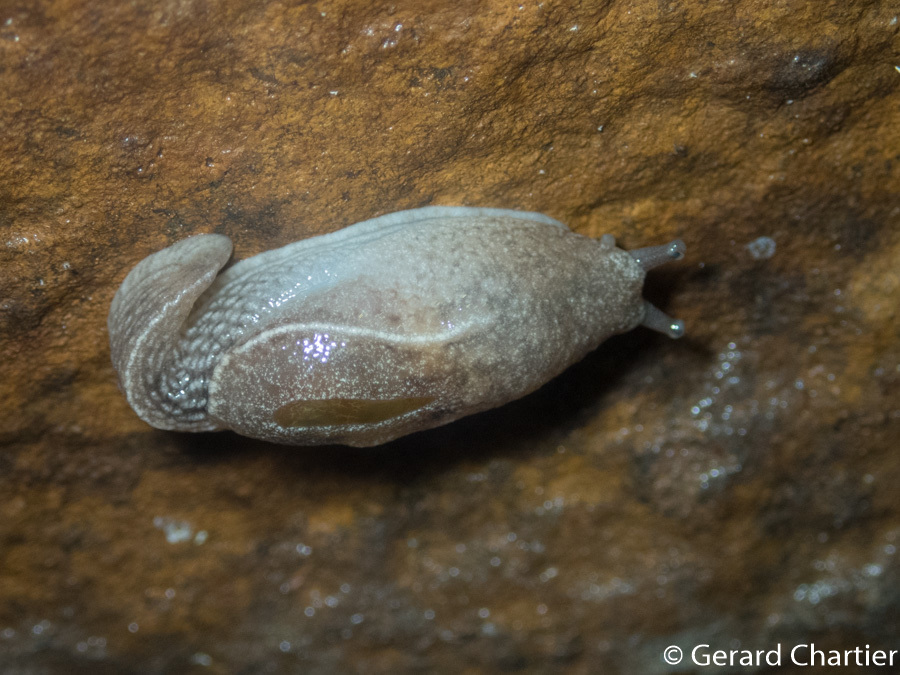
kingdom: Animalia
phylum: Mollusca
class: Gastropoda
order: Stylommatophora
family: Ariophantidae
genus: Parmarion
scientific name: Parmarion martensi
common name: Semi-slug
